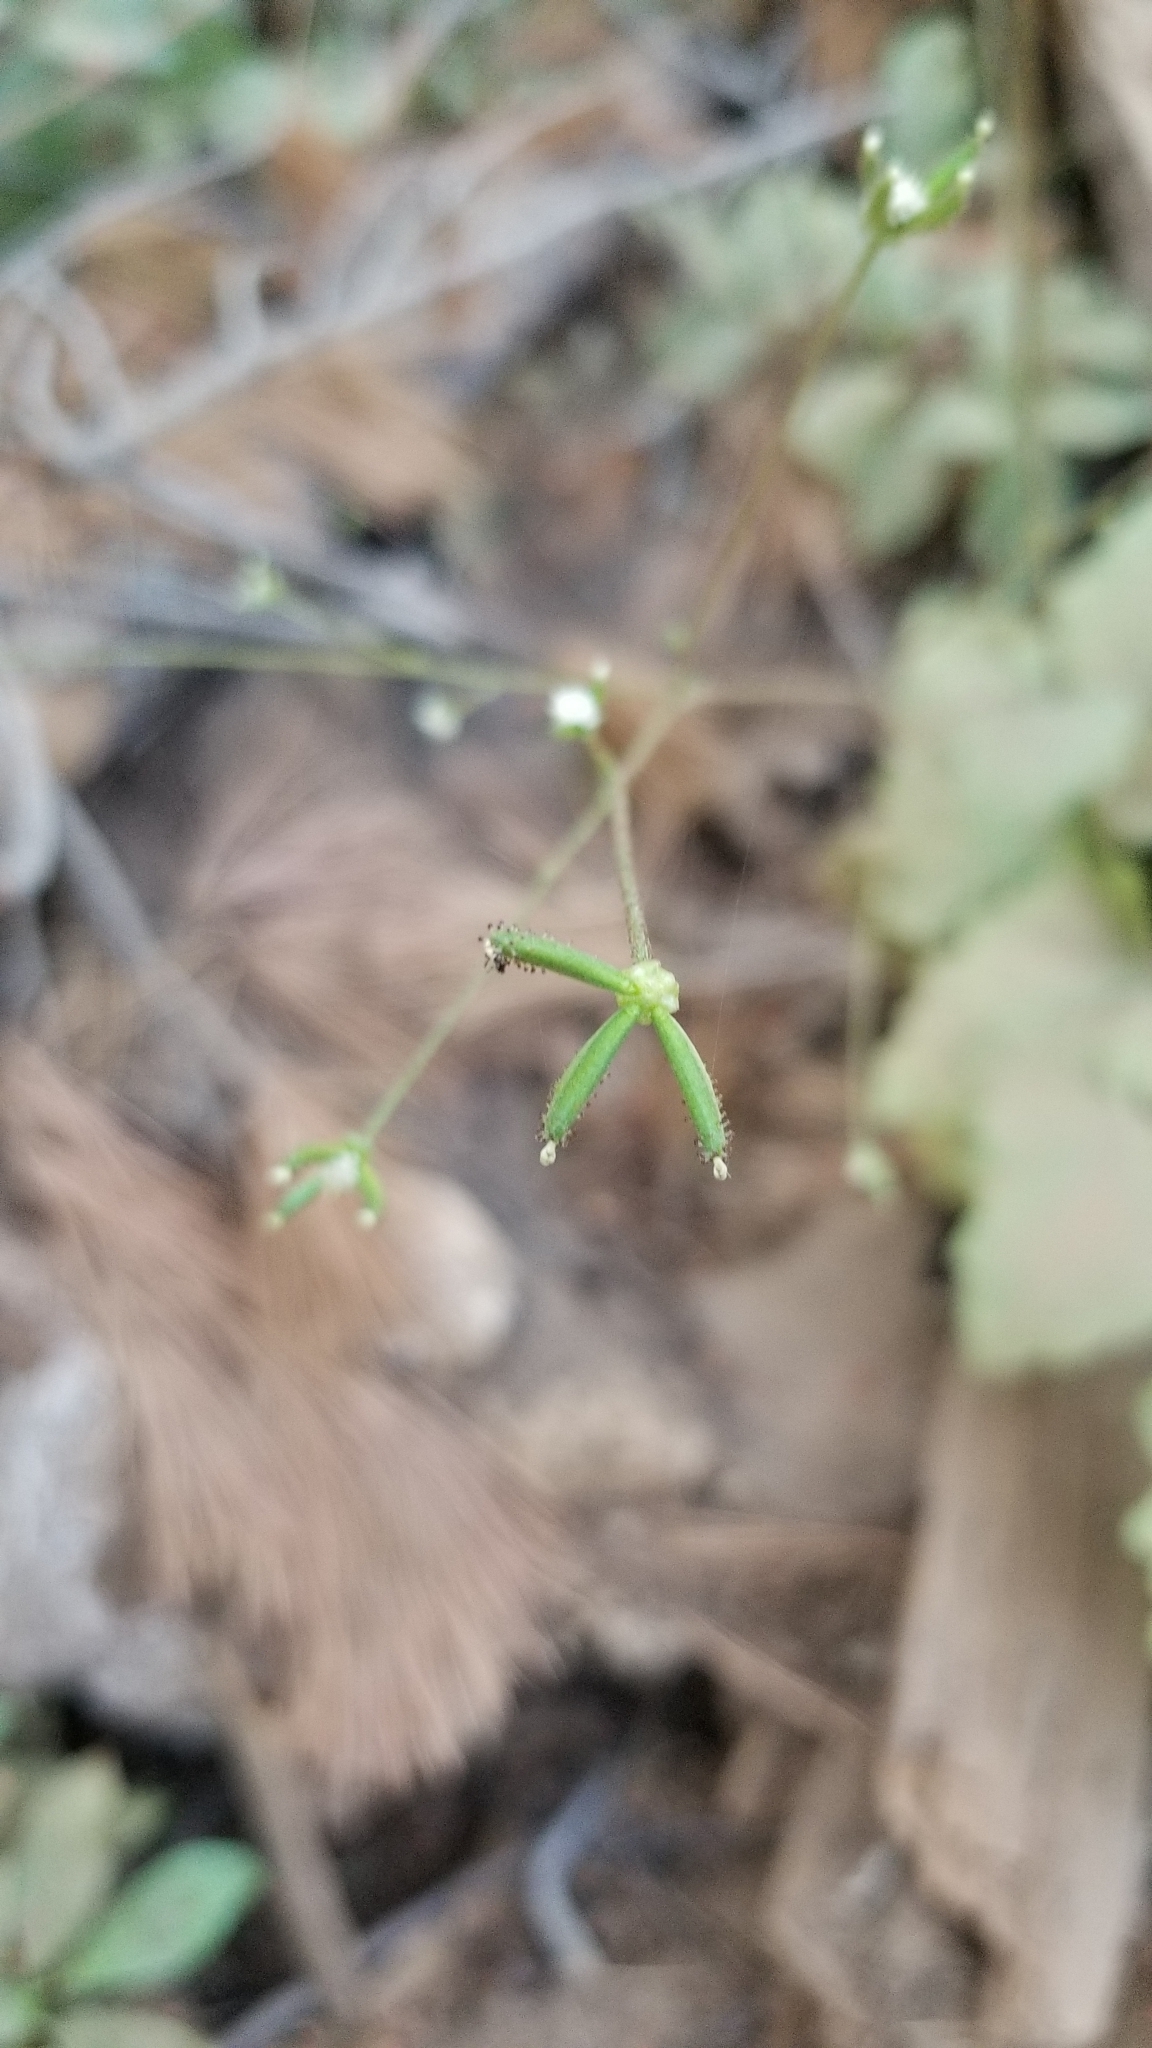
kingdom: Plantae
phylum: Tracheophyta
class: Magnoliopsida
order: Asterales
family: Asteraceae
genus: Adenocaulon
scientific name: Adenocaulon bicolor
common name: Trailplant
